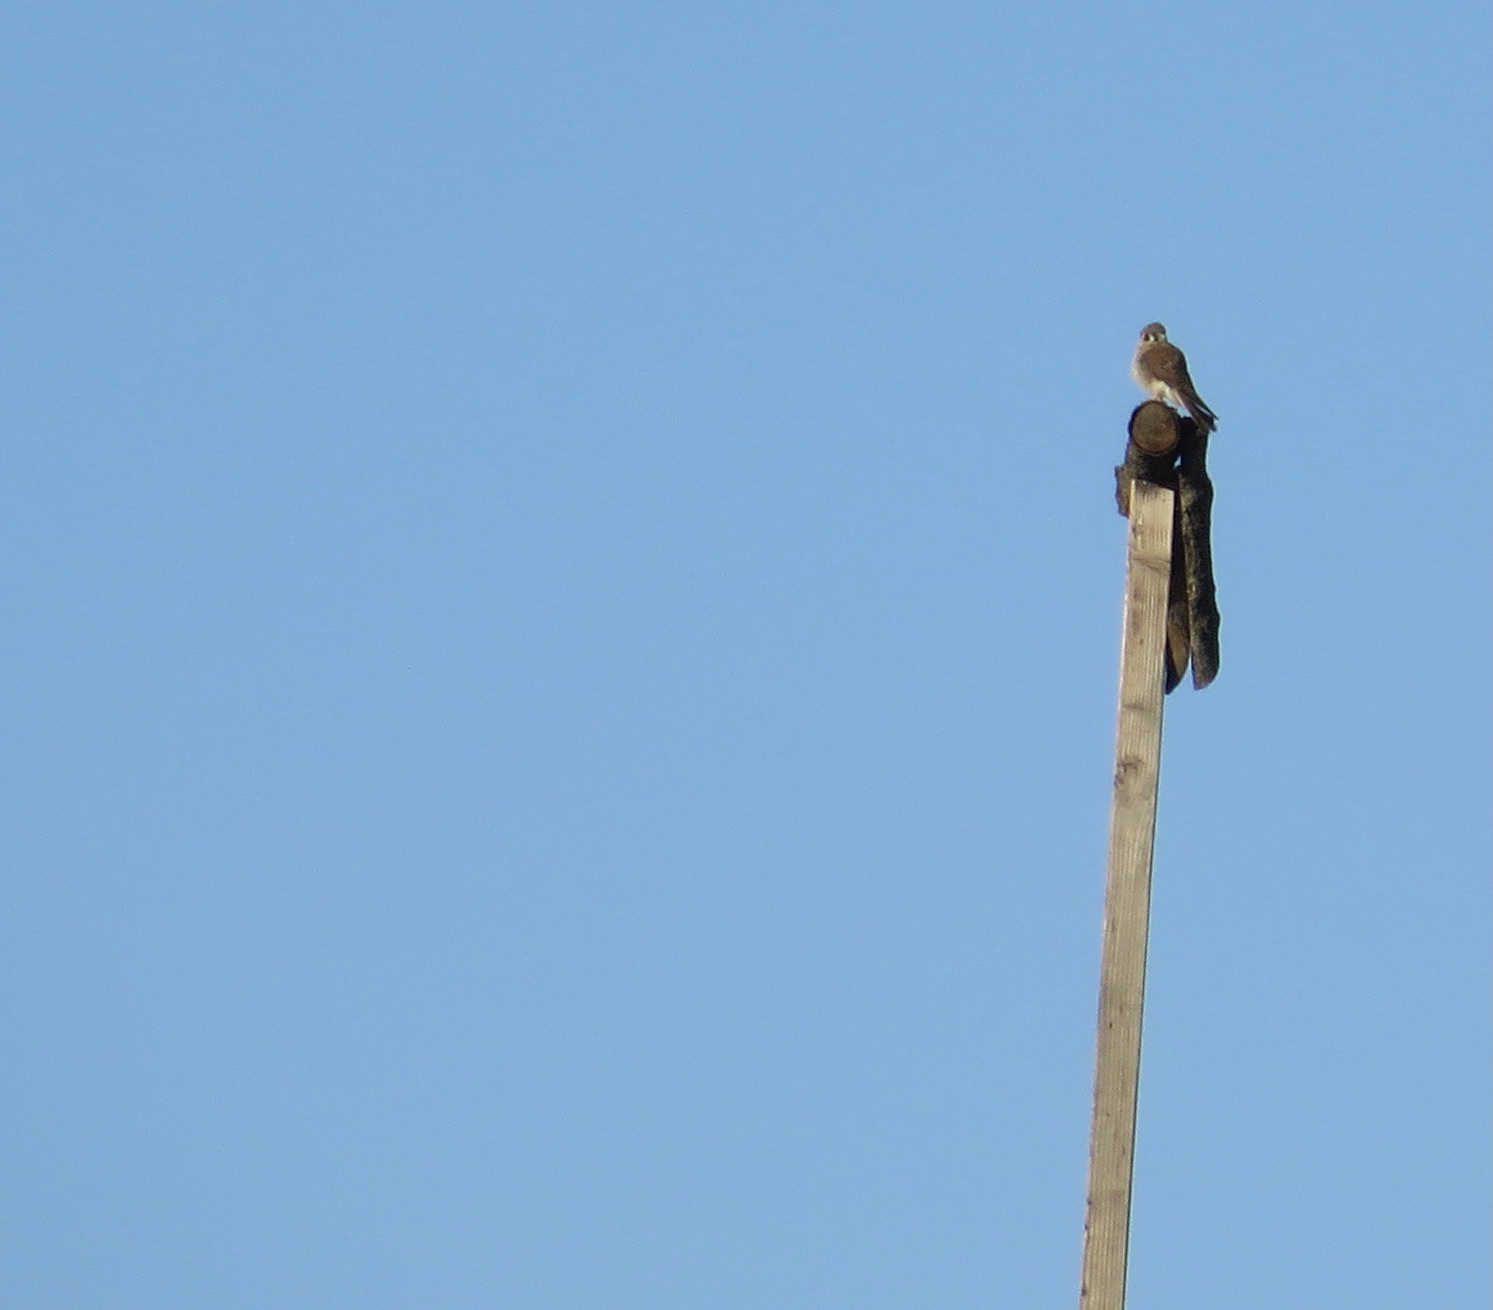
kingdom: Animalia
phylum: Chordata
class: Aves
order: Falconiformes
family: Falconidae
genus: Falco
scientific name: Falco sparverius
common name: American kestrel
